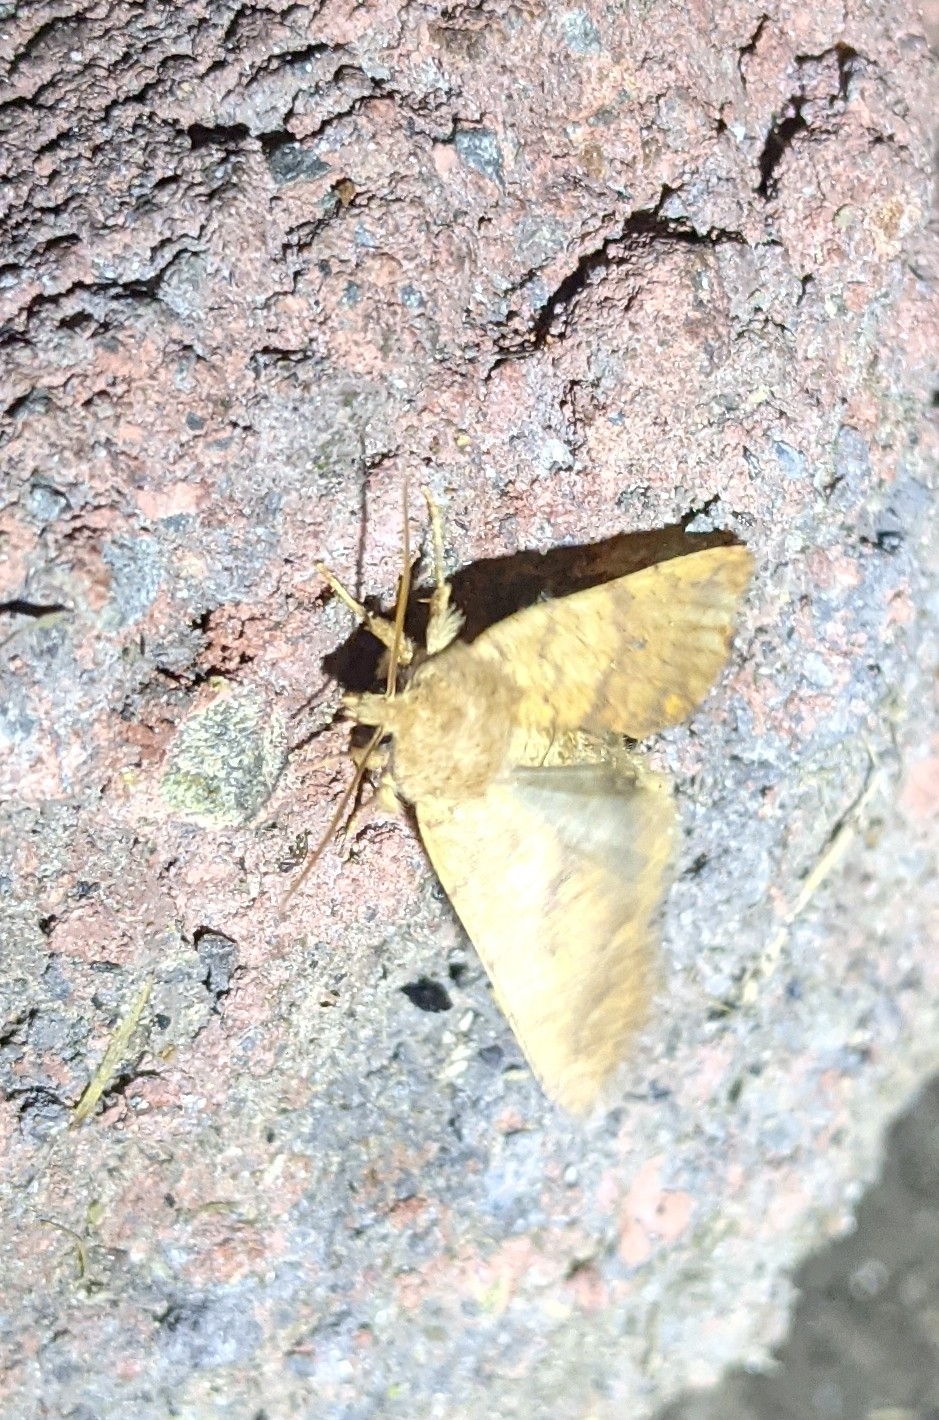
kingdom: Animalia
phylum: Arthropoda
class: Insecta
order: Lepidoptera
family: Noctuidae
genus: Agrochola
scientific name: Agrochola bicolorago
